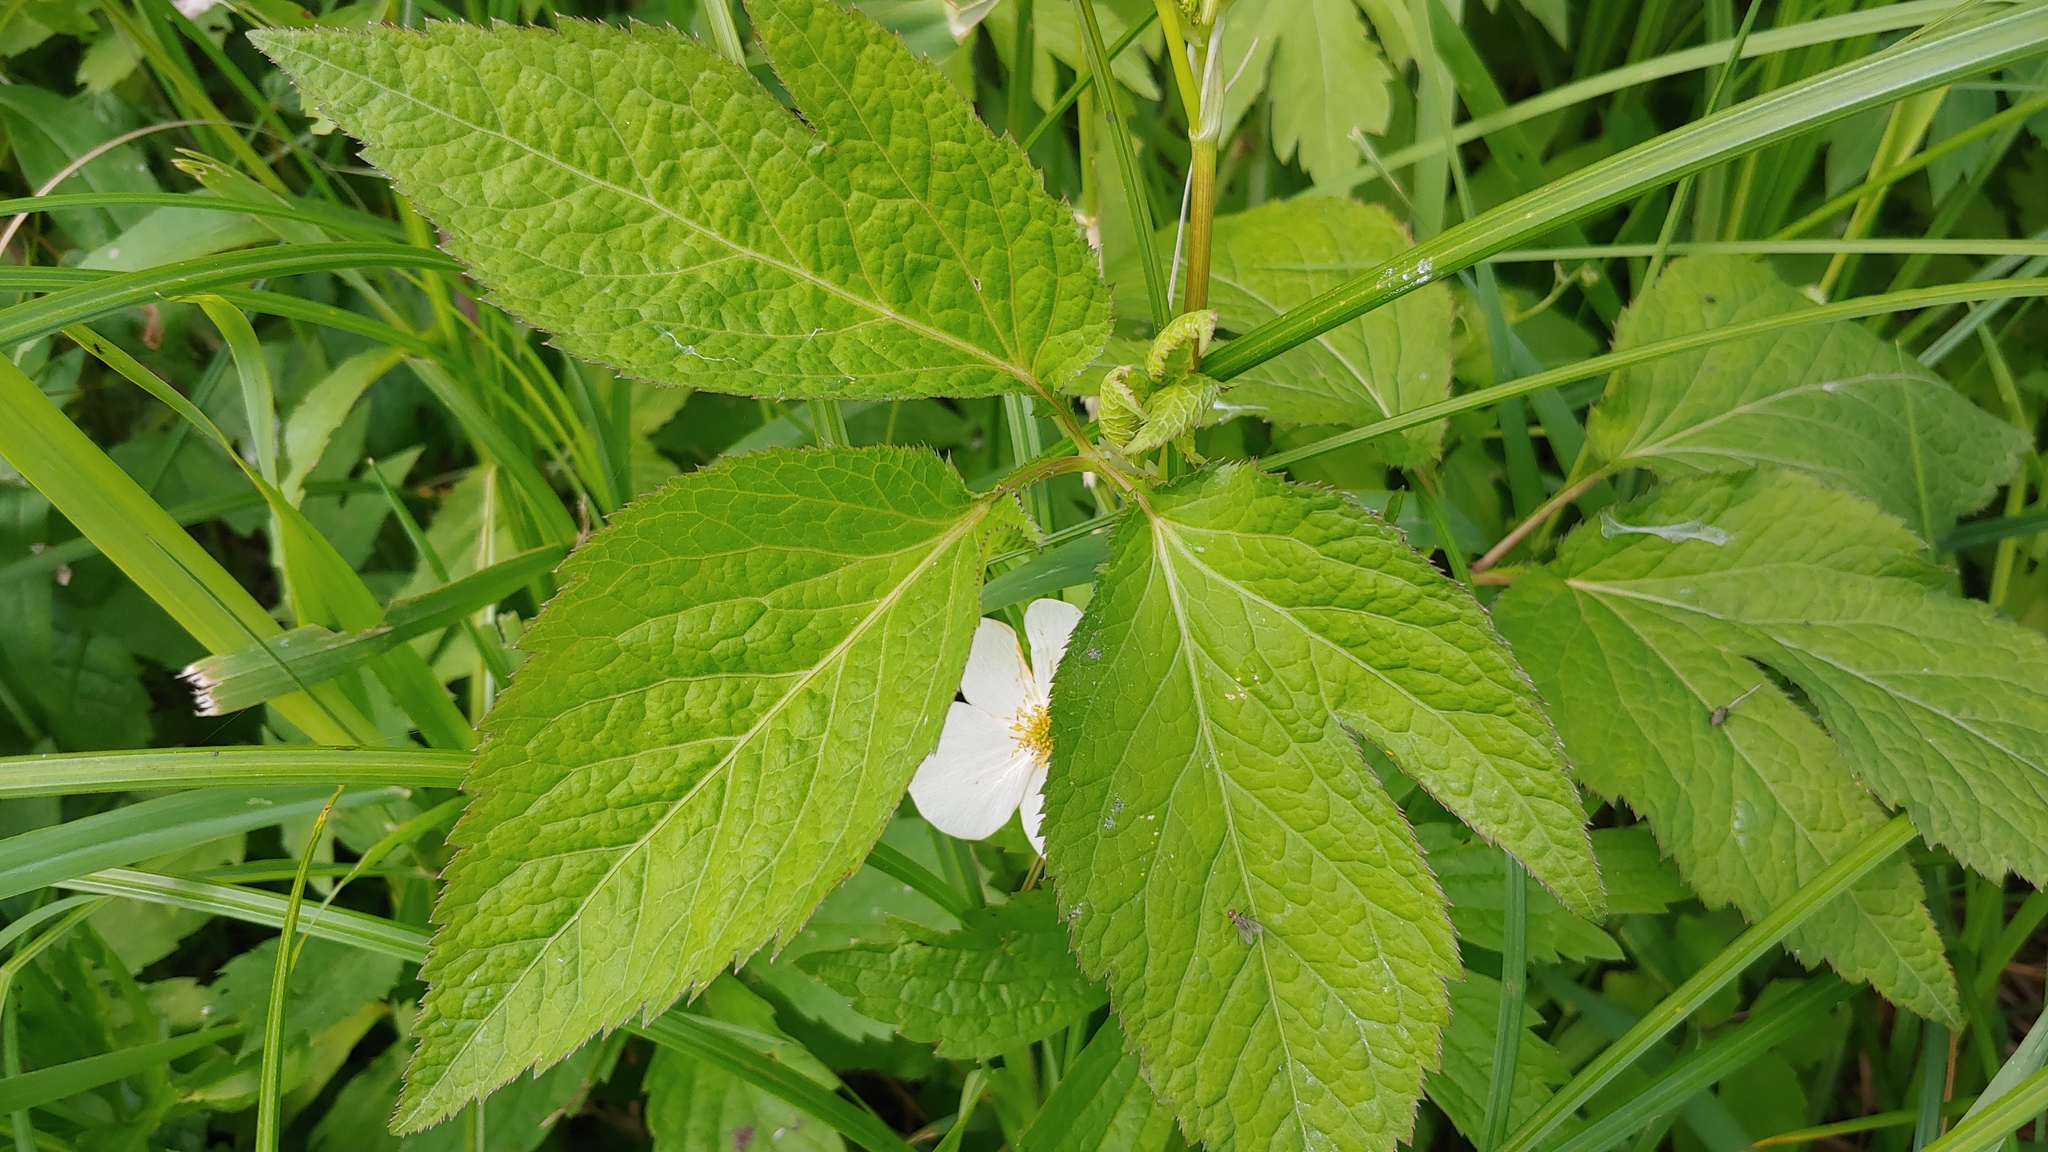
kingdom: Plantae
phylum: Tracheophyta
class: Magnoliopsida
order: Apiales
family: Apiaceae
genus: Cryptotaenia
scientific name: Cryptotaenia canadensis
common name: Honewort
